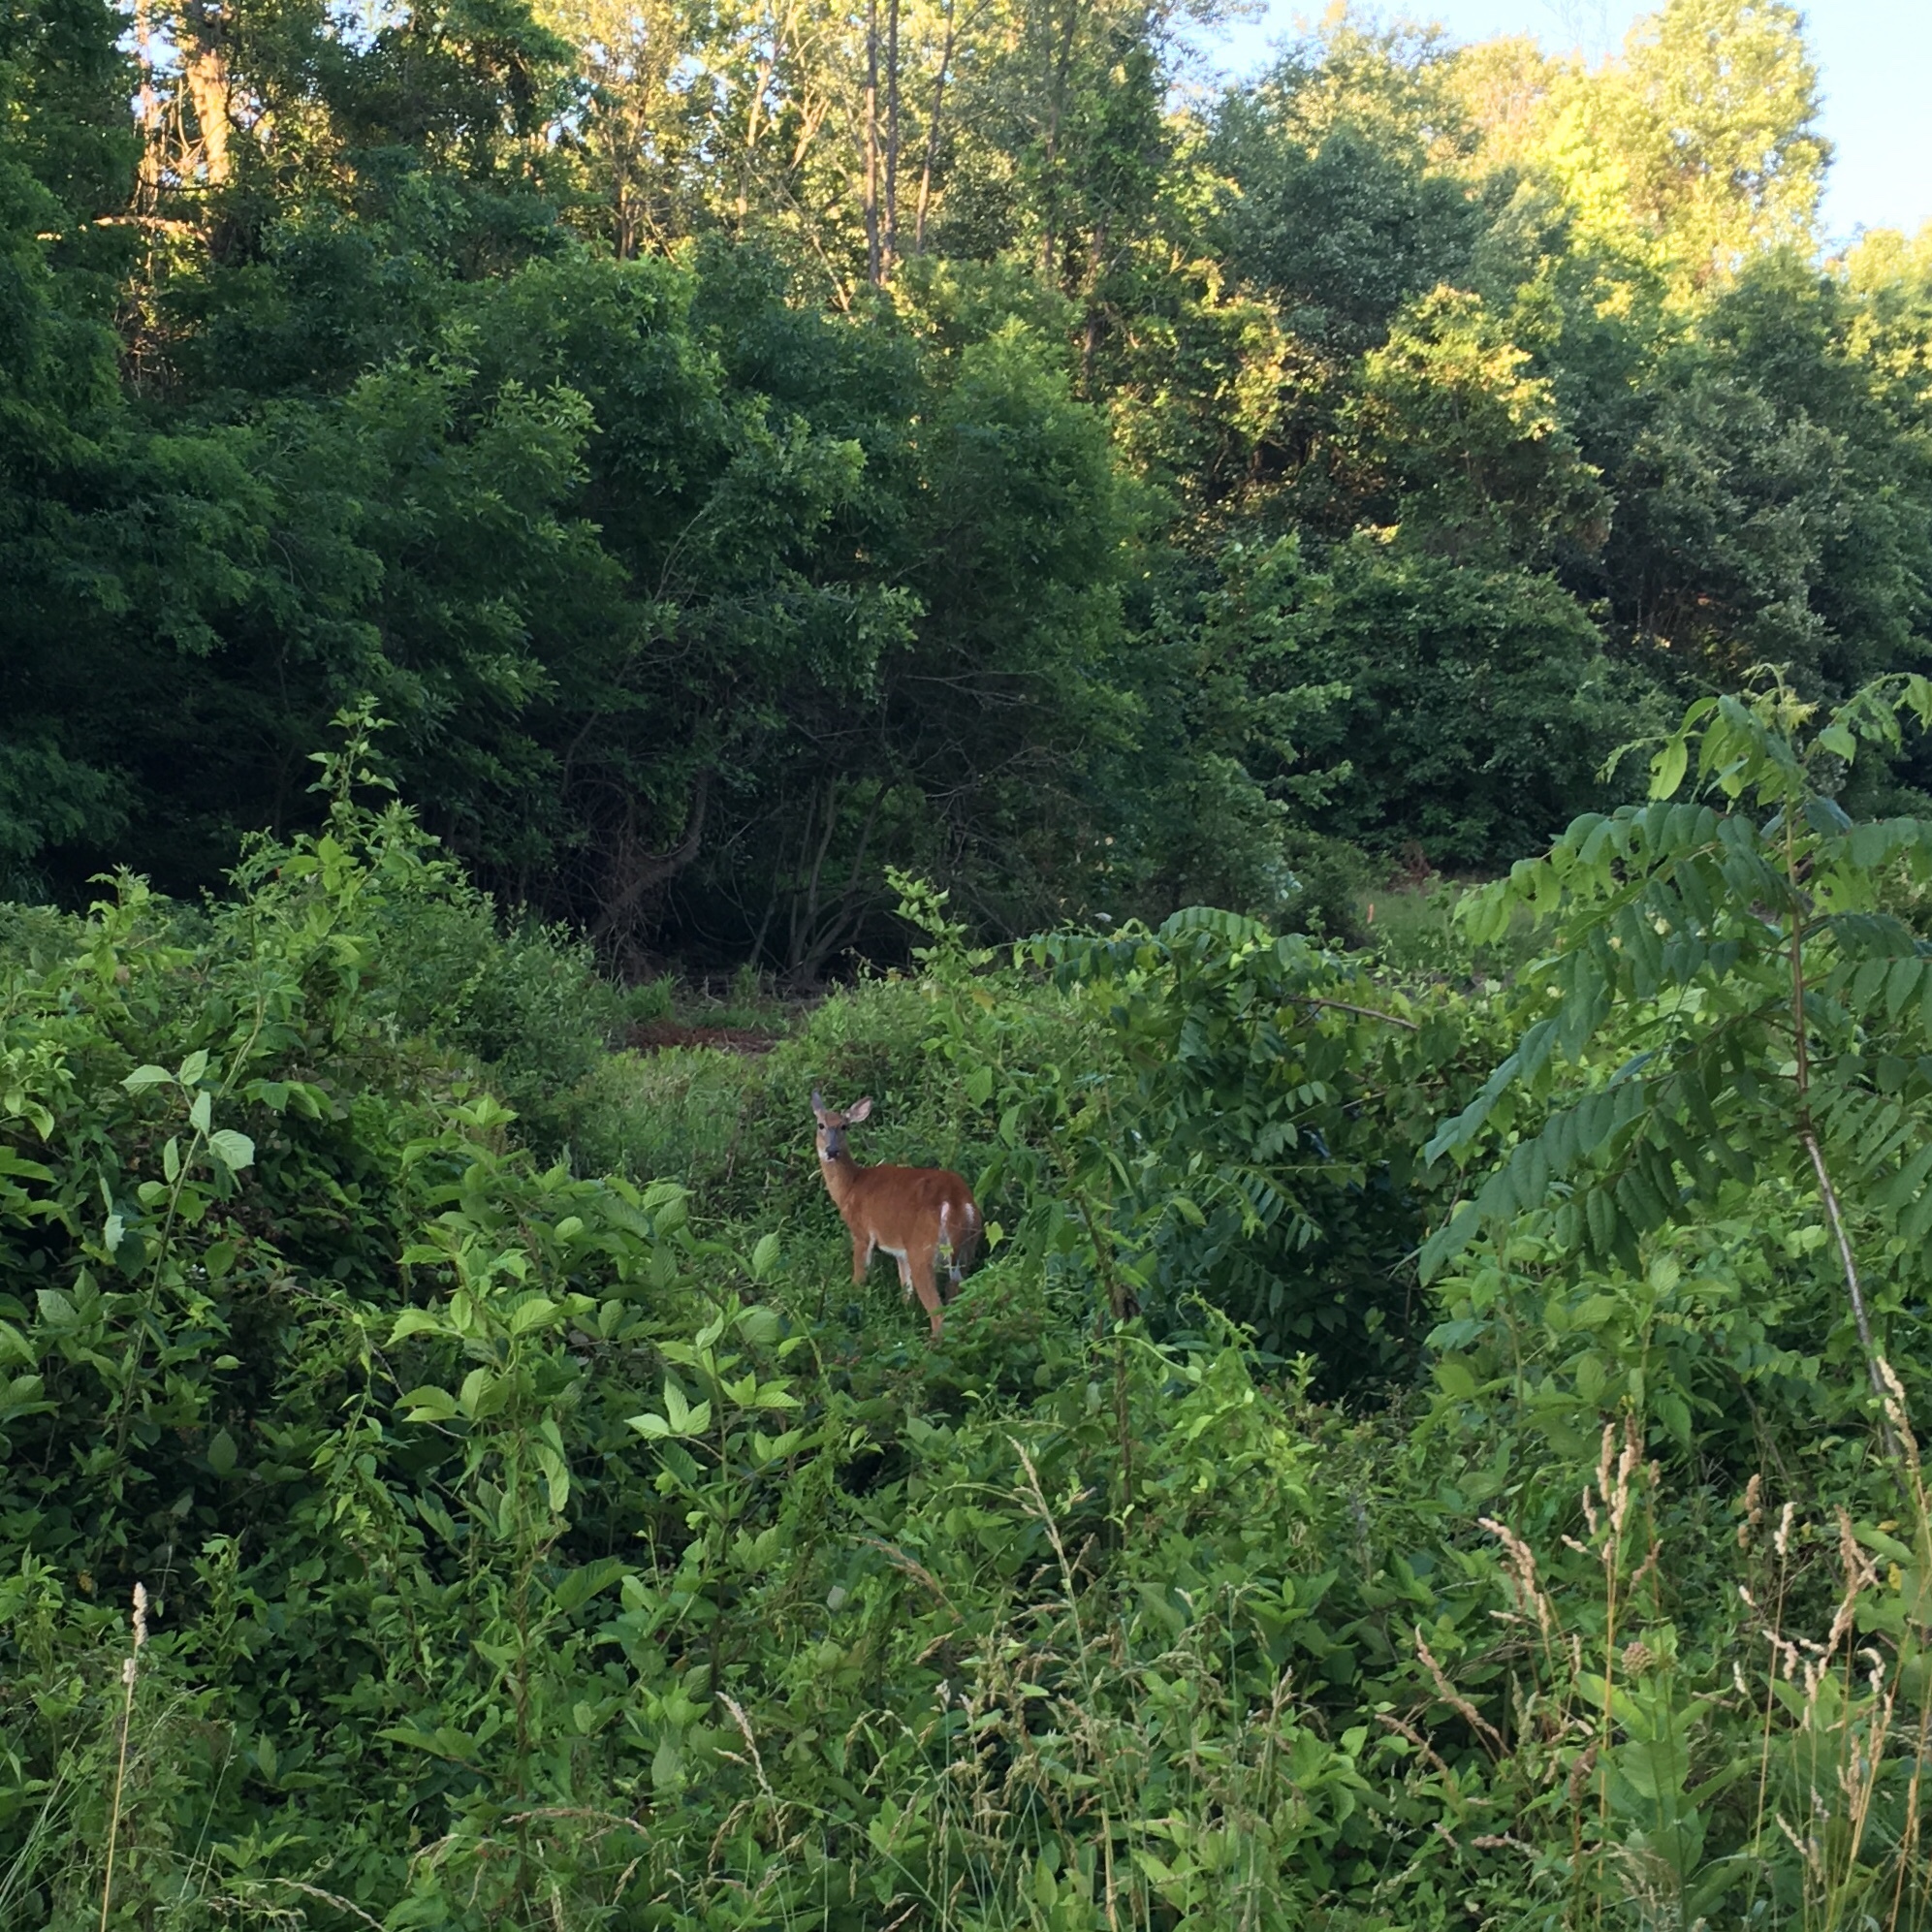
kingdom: Animalia
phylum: Chordata
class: Mammalia
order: Artiodactyla
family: Cervidae
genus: Odocoileus
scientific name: Odocoileus virginianus
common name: White-tailed deer
